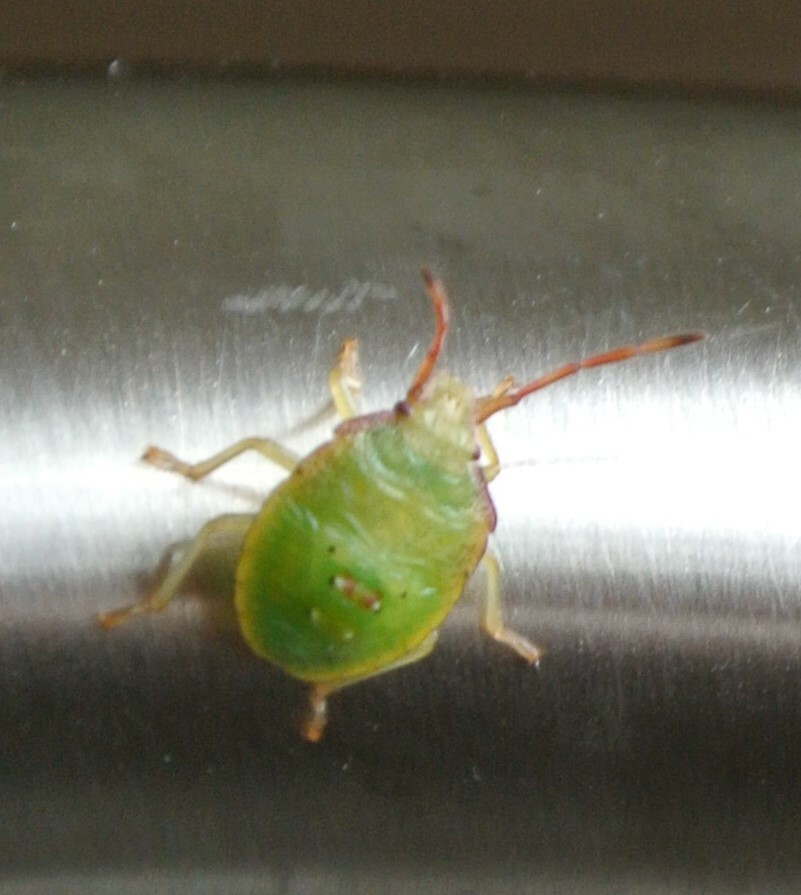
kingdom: Animalia
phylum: Arthropoda
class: Insecta
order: Hemiptera
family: Acanthosomatidae
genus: Acanthosoma
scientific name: Acanthosoma haemorrhoidale
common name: Hawthorn shieldbug
